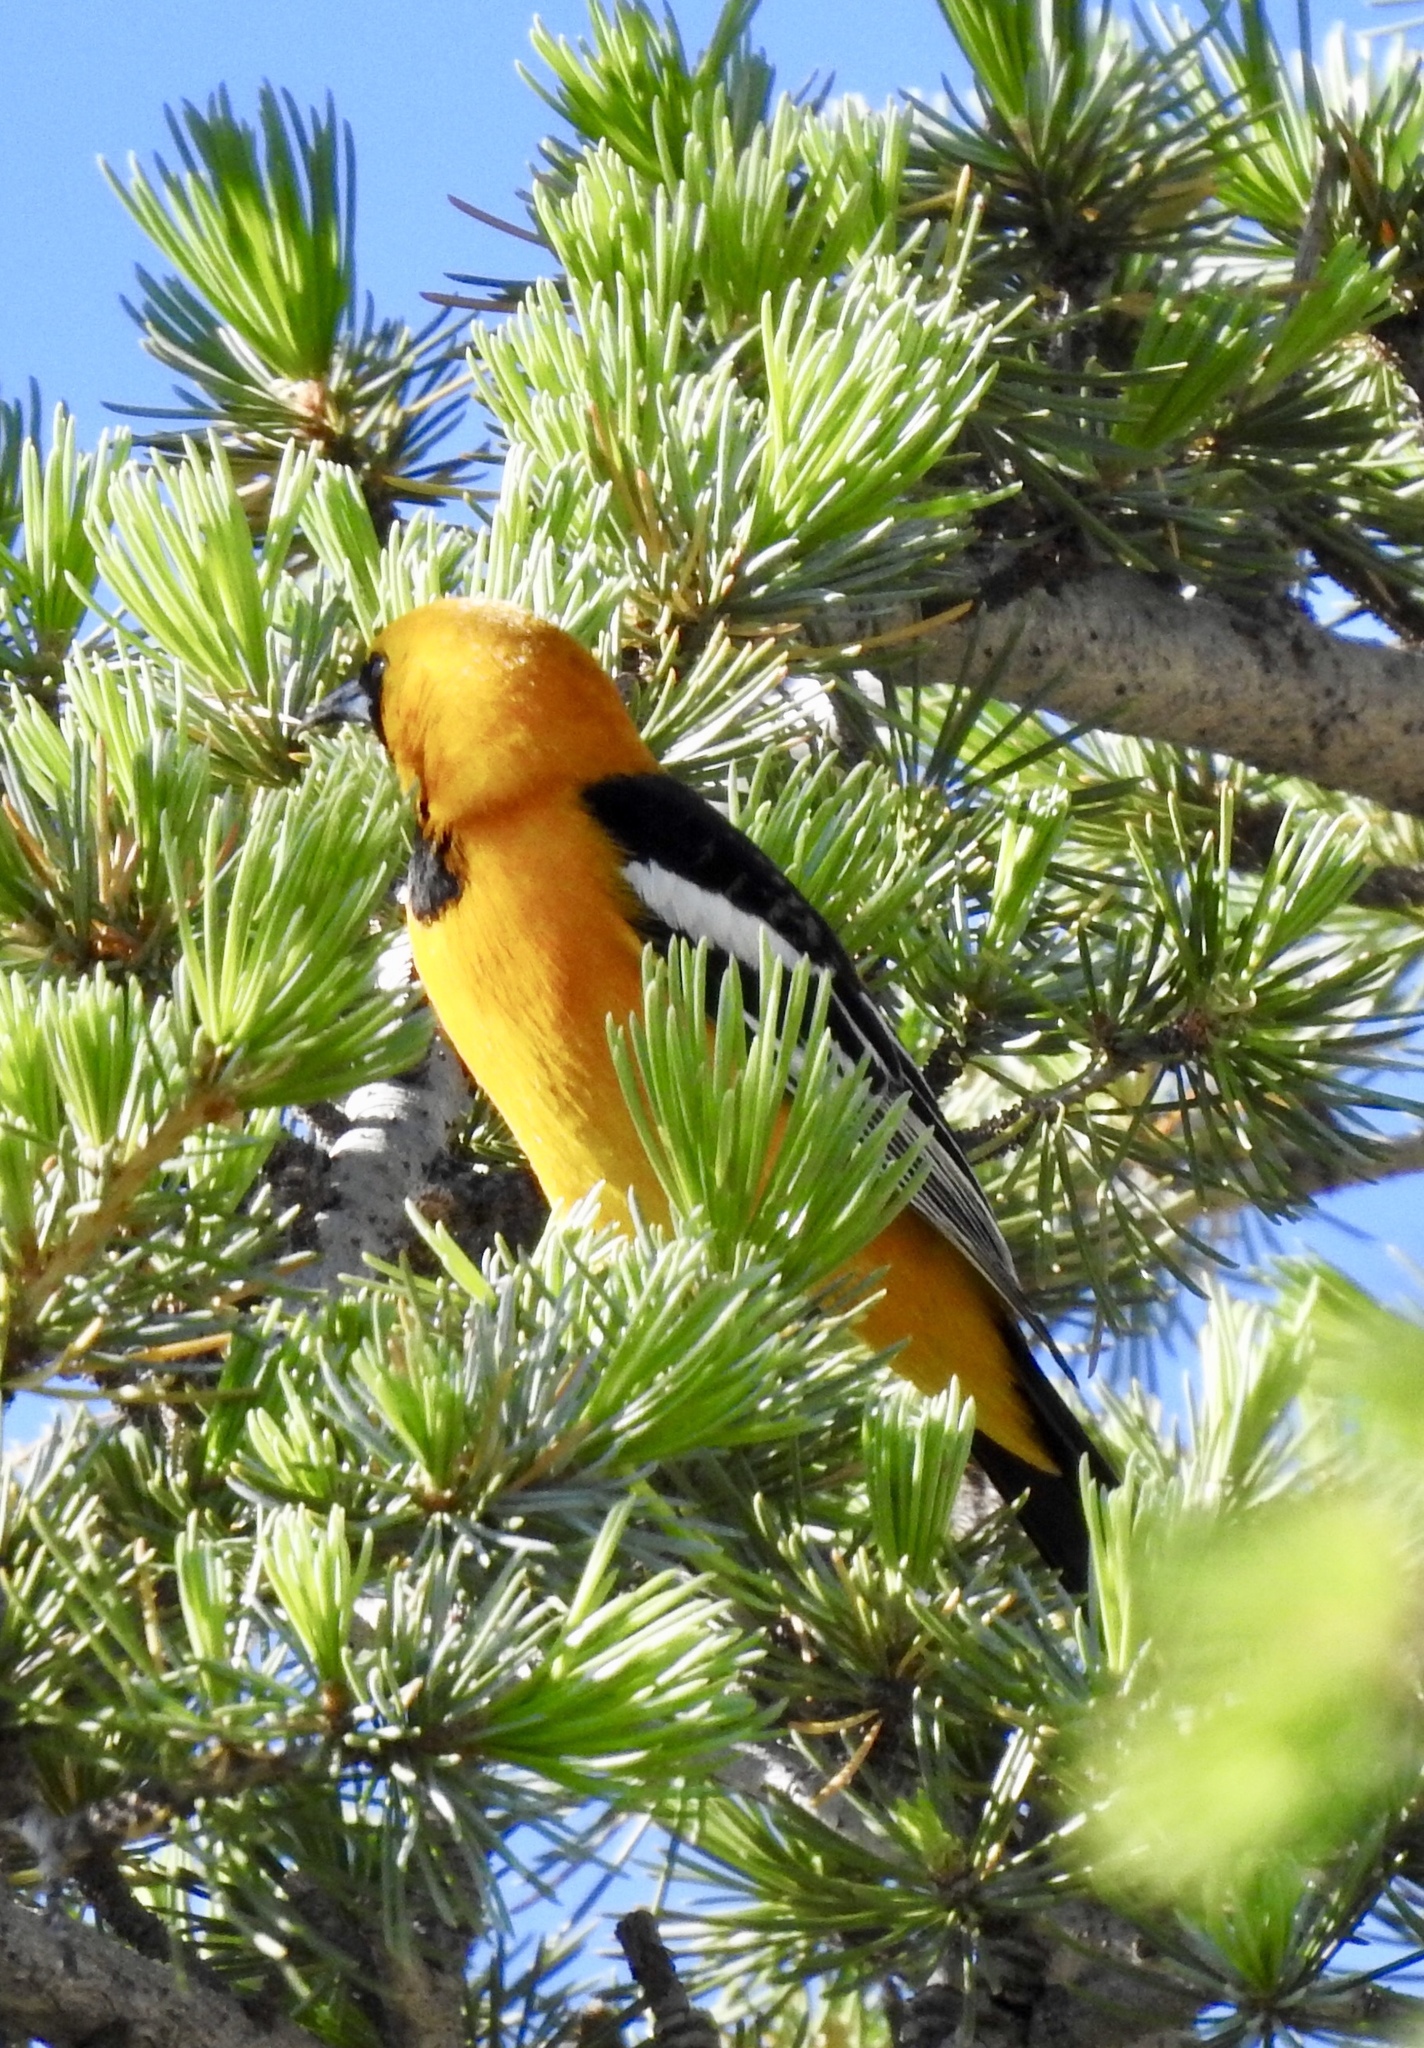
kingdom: Animalia
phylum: Chordata
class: Aves
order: Passeriformes
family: Icteridae
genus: Icterus
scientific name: Icterus cucullatus
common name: Hooded oriole
